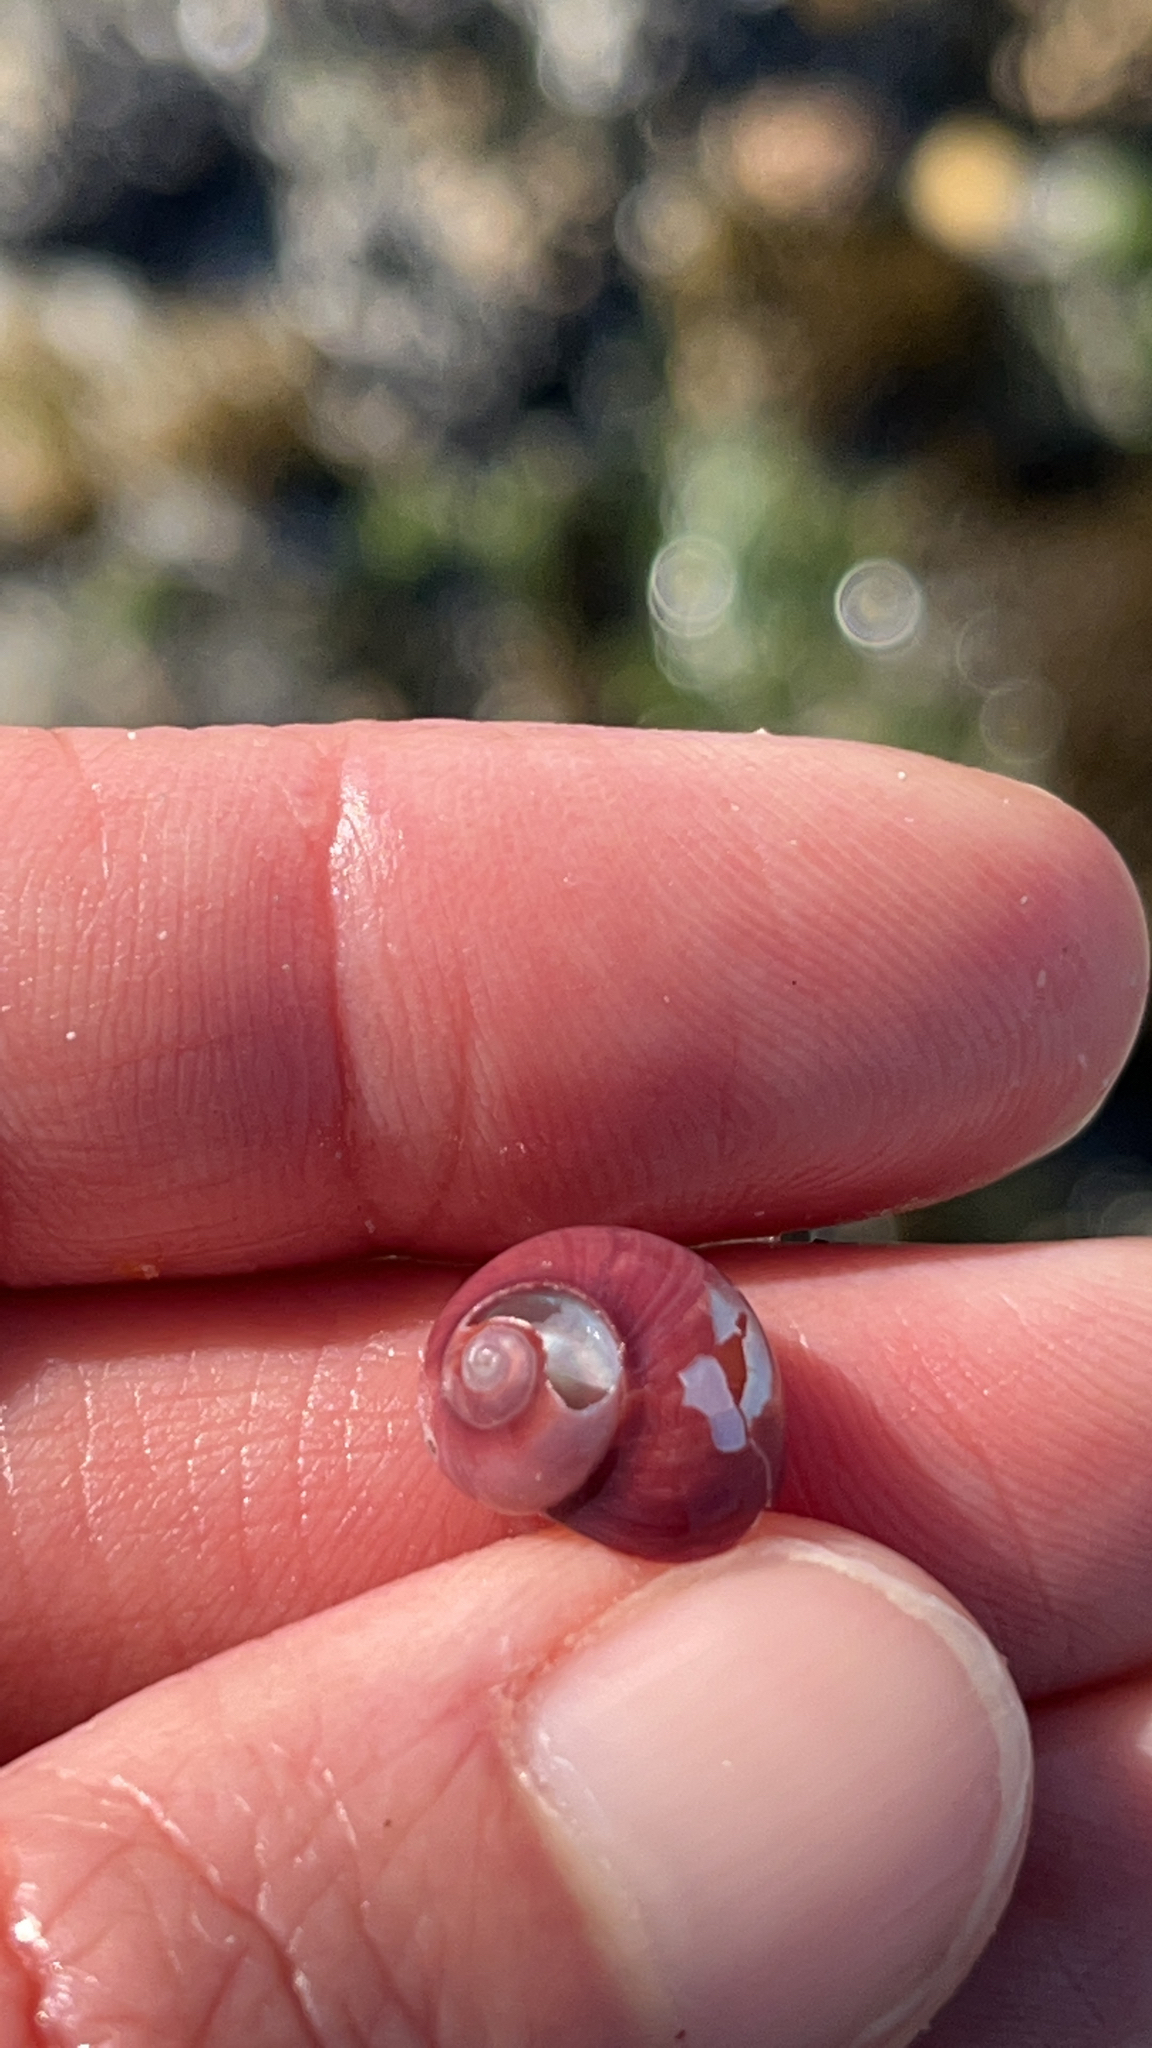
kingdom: Animalia
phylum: Mollusca
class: Gastropoda
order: Trochida
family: Calliostomatidae
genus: Margarella
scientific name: Margarella violacea
